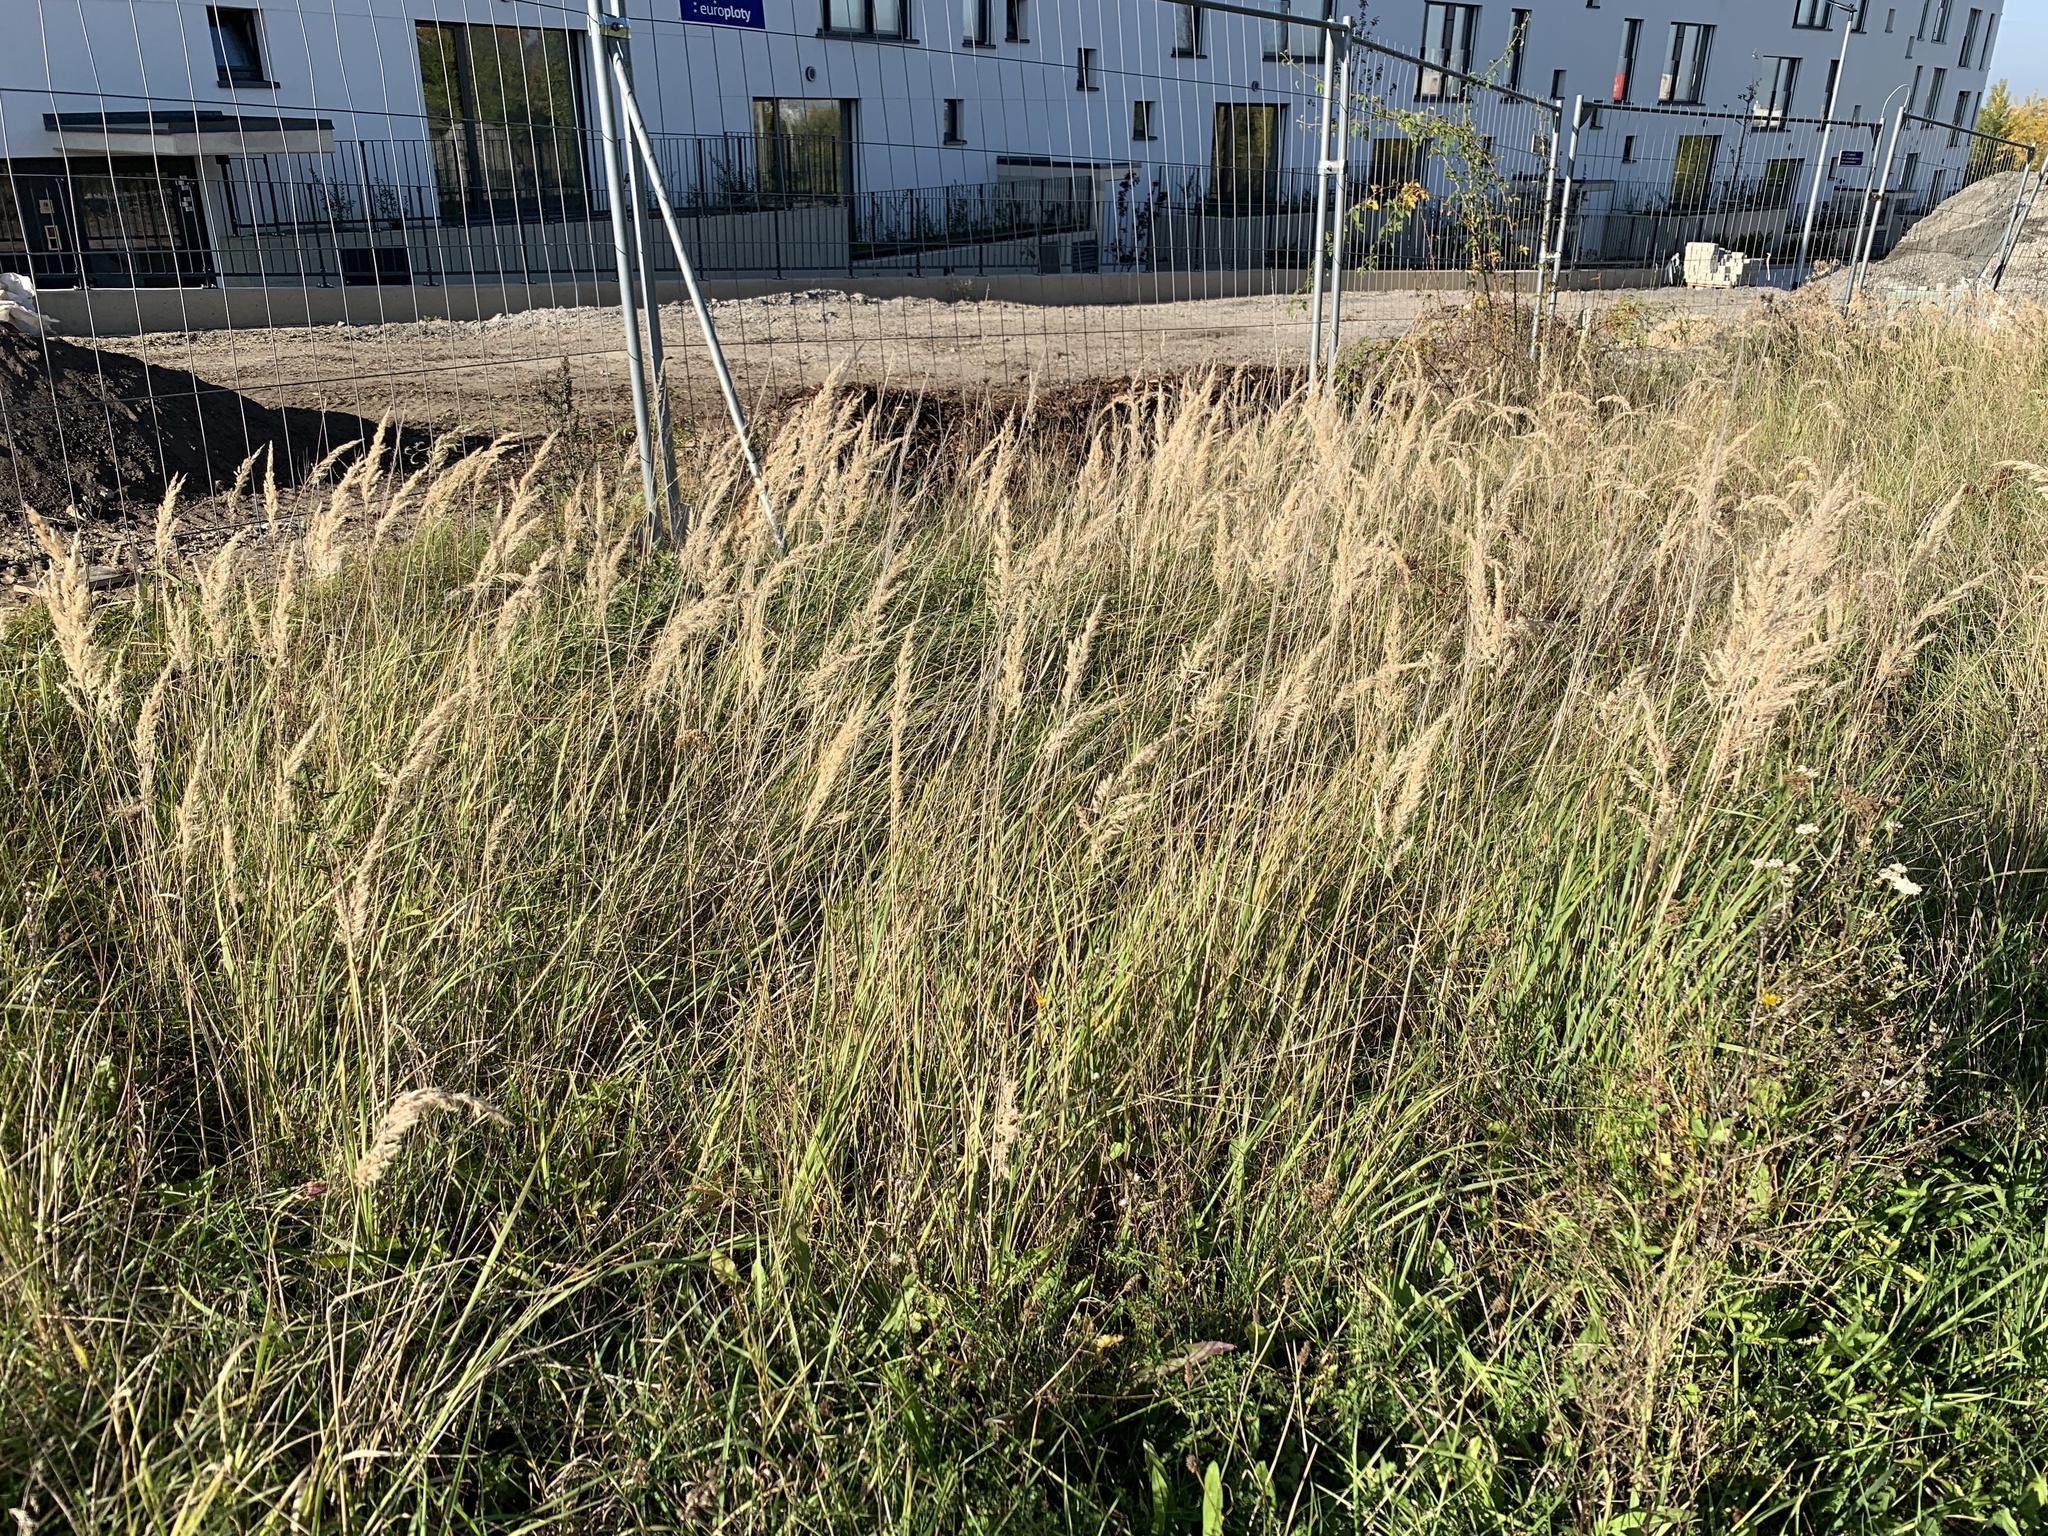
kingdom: Plantae
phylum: Tracheophyta
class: Liliopsida
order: Poales
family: Poaceae
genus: Calamagrostis
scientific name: Calamagrostis epigejos
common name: Wood small-reed
